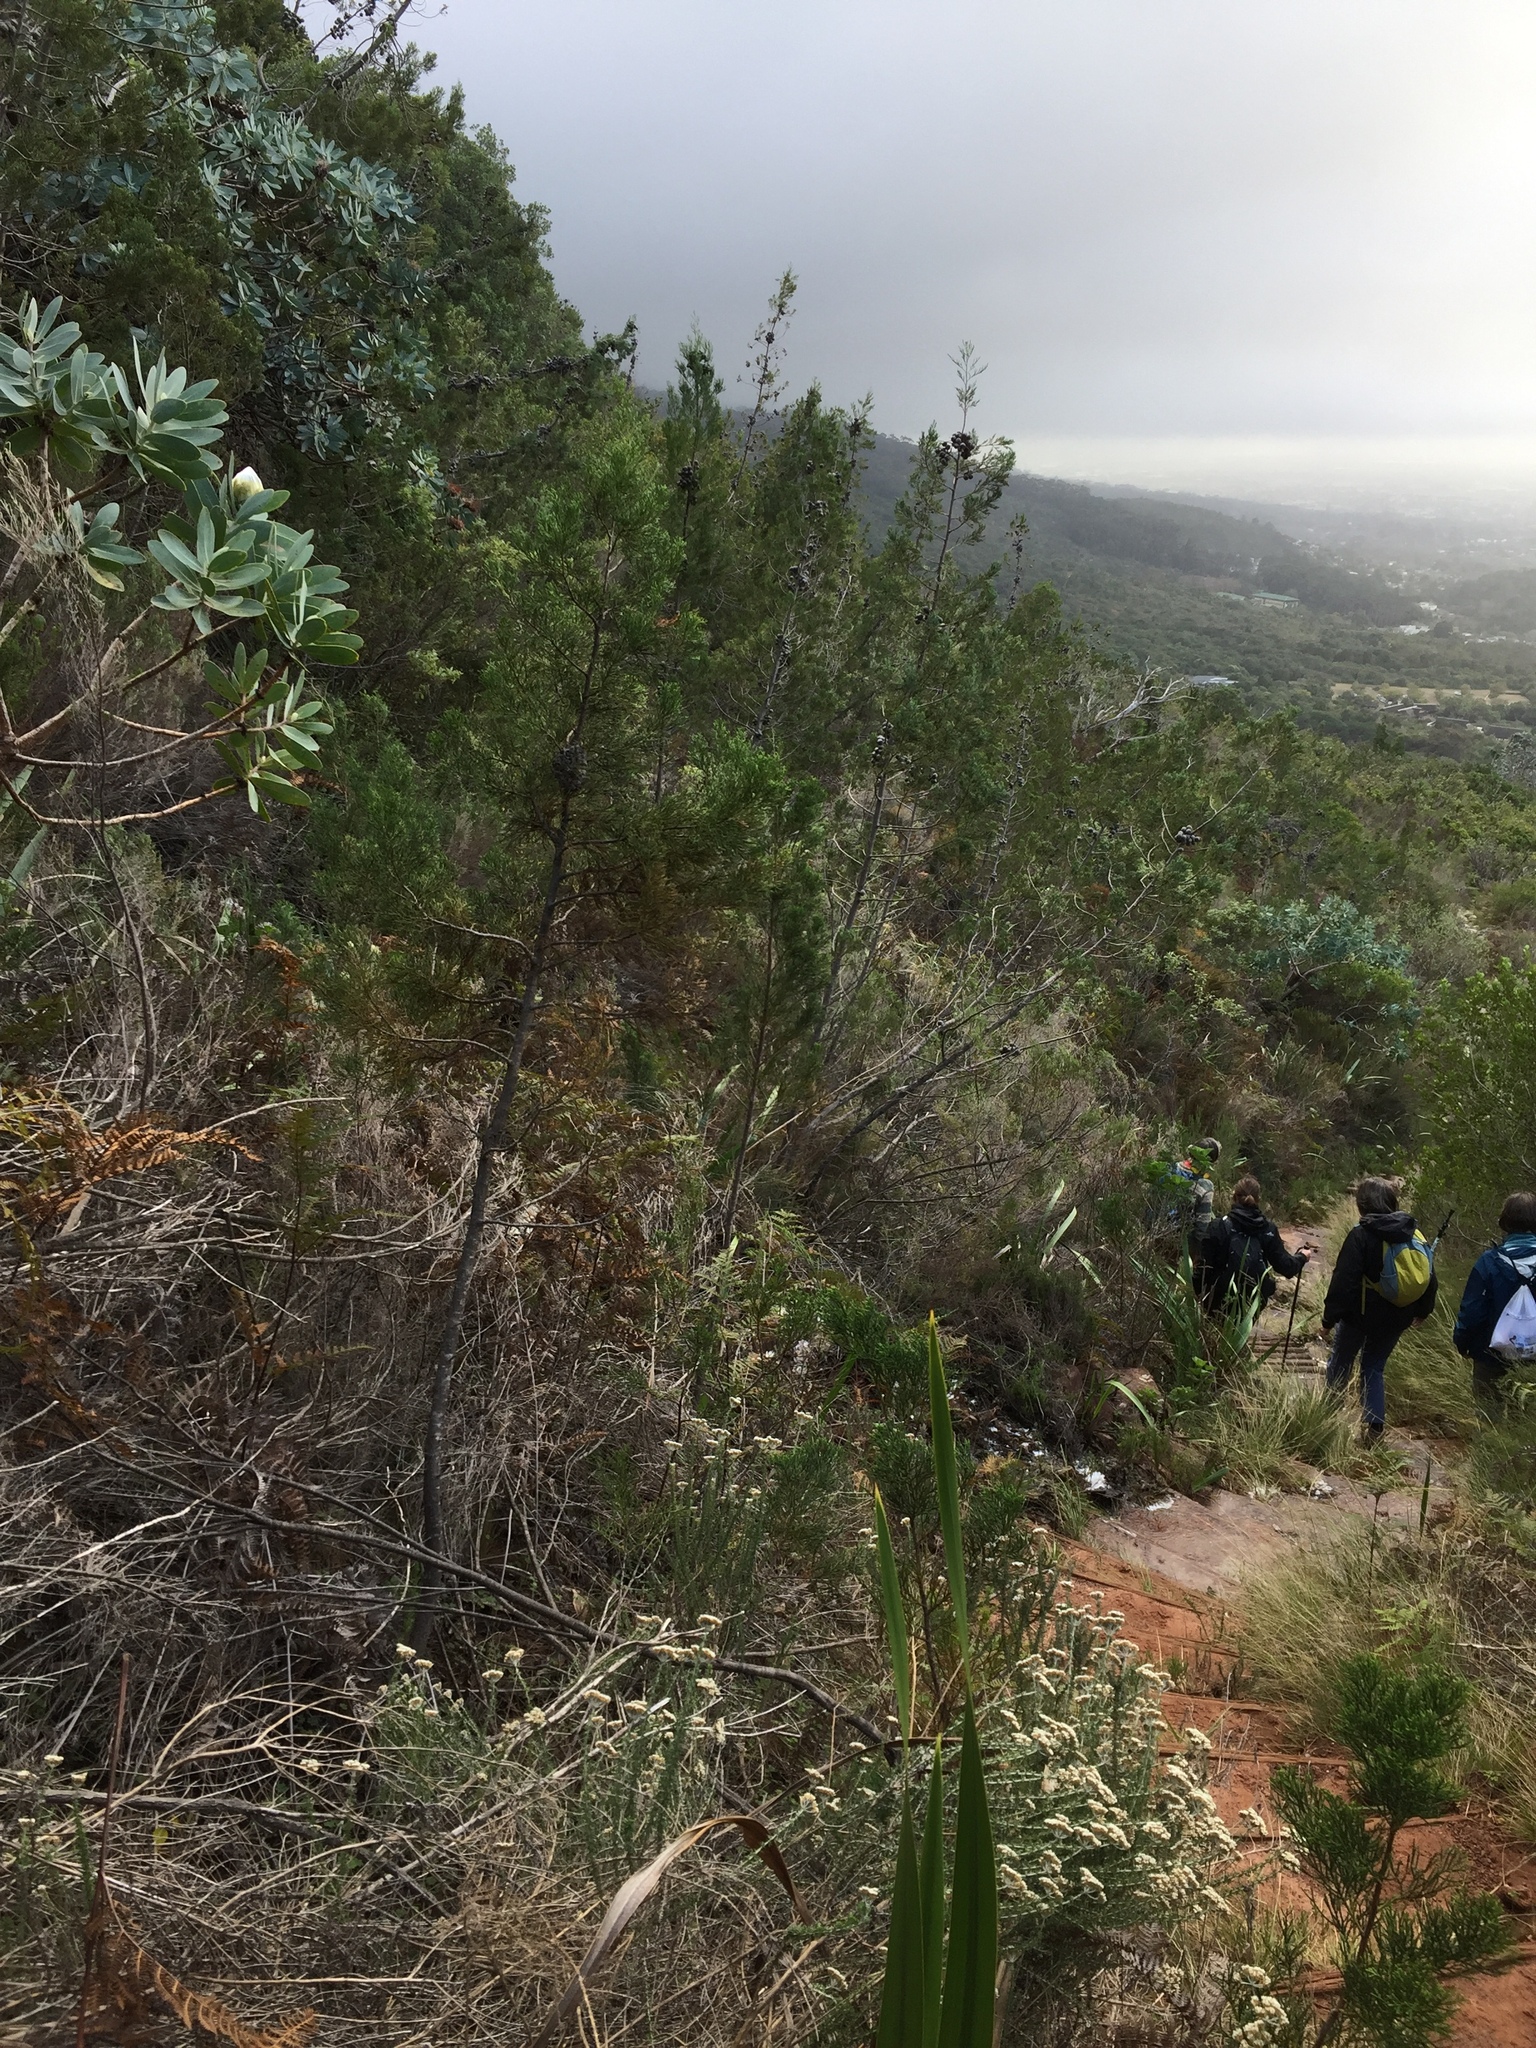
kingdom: Plantae
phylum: Tracheophyta
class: Pinopsida
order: Pinales
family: Cupressaceae
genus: Widdringtonia
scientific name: Widdringtonia nodiflora
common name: Cape cypress
